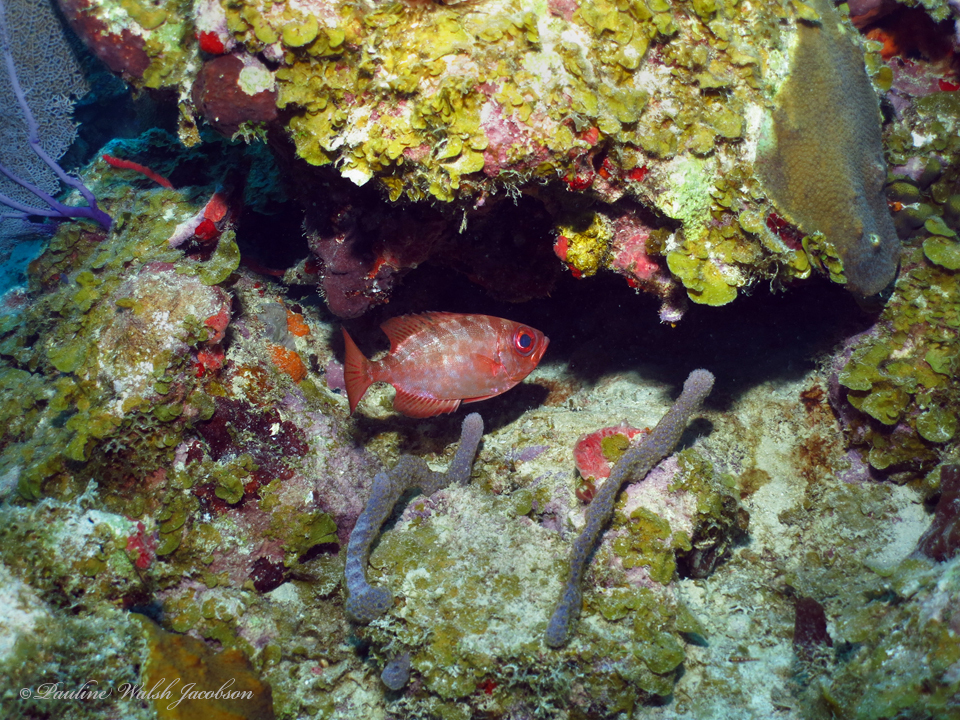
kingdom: Animalia
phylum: Chordata
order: Perciformes
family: Priacanthidae
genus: Heteropriacanthus
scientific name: Heteropriacanthus cruentatus
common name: Glasseye
